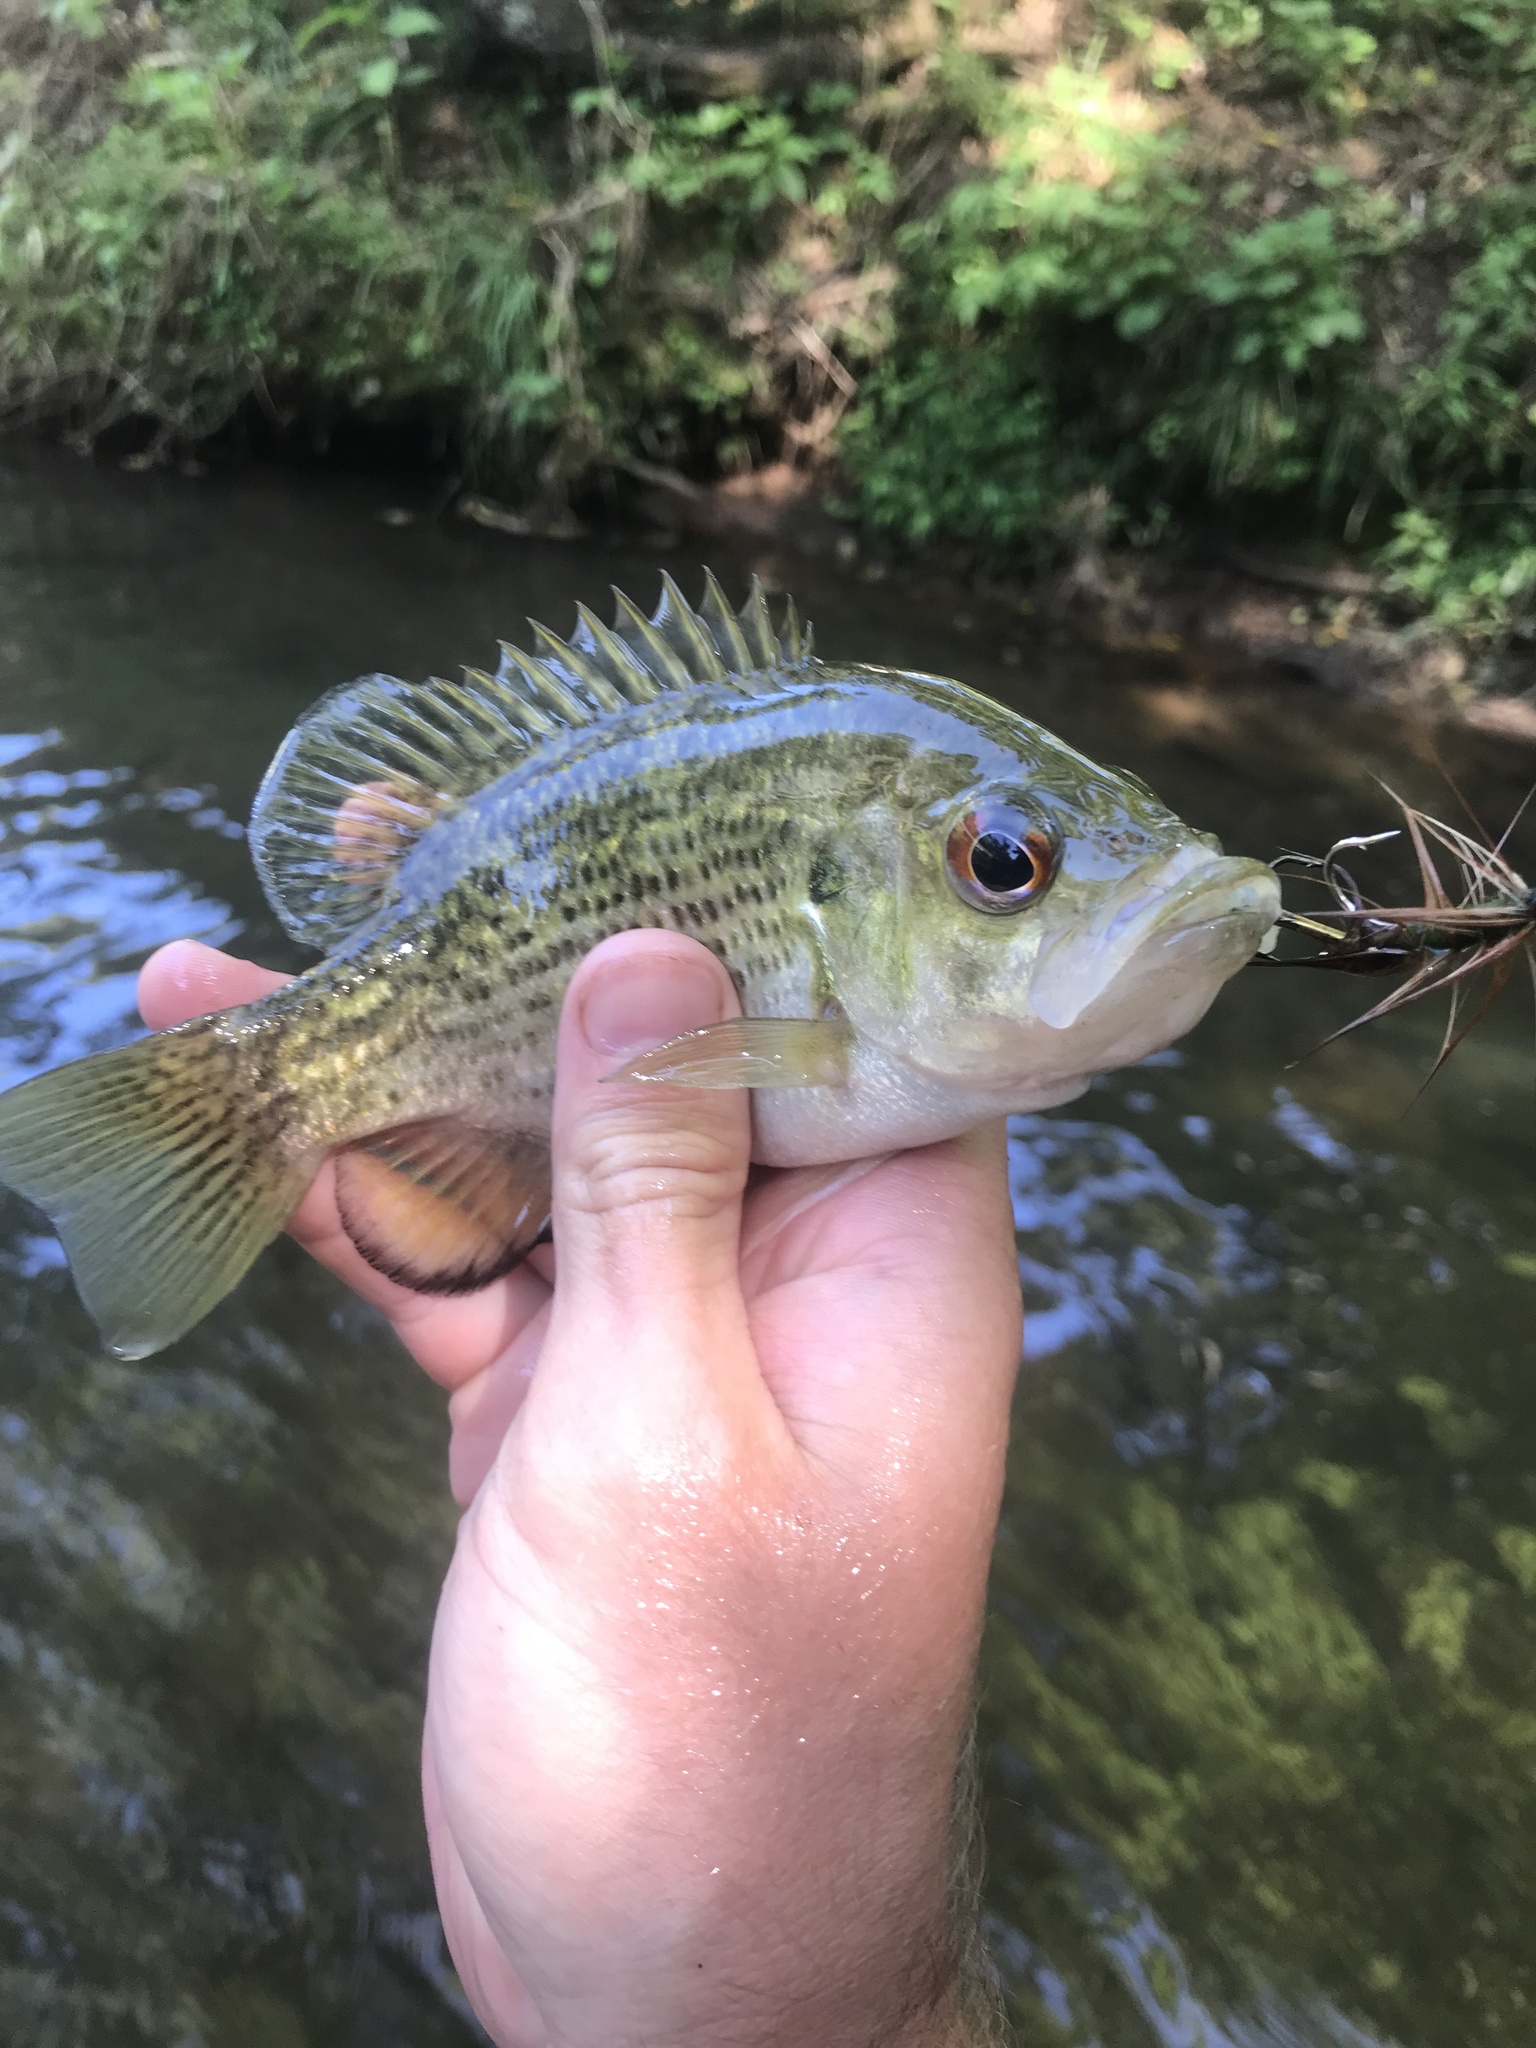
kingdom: Animalia
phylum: Chordata
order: Perciformes
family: Centrarchidae
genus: Ambloplites
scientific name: Ambloplites rupestris
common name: Rock bass
